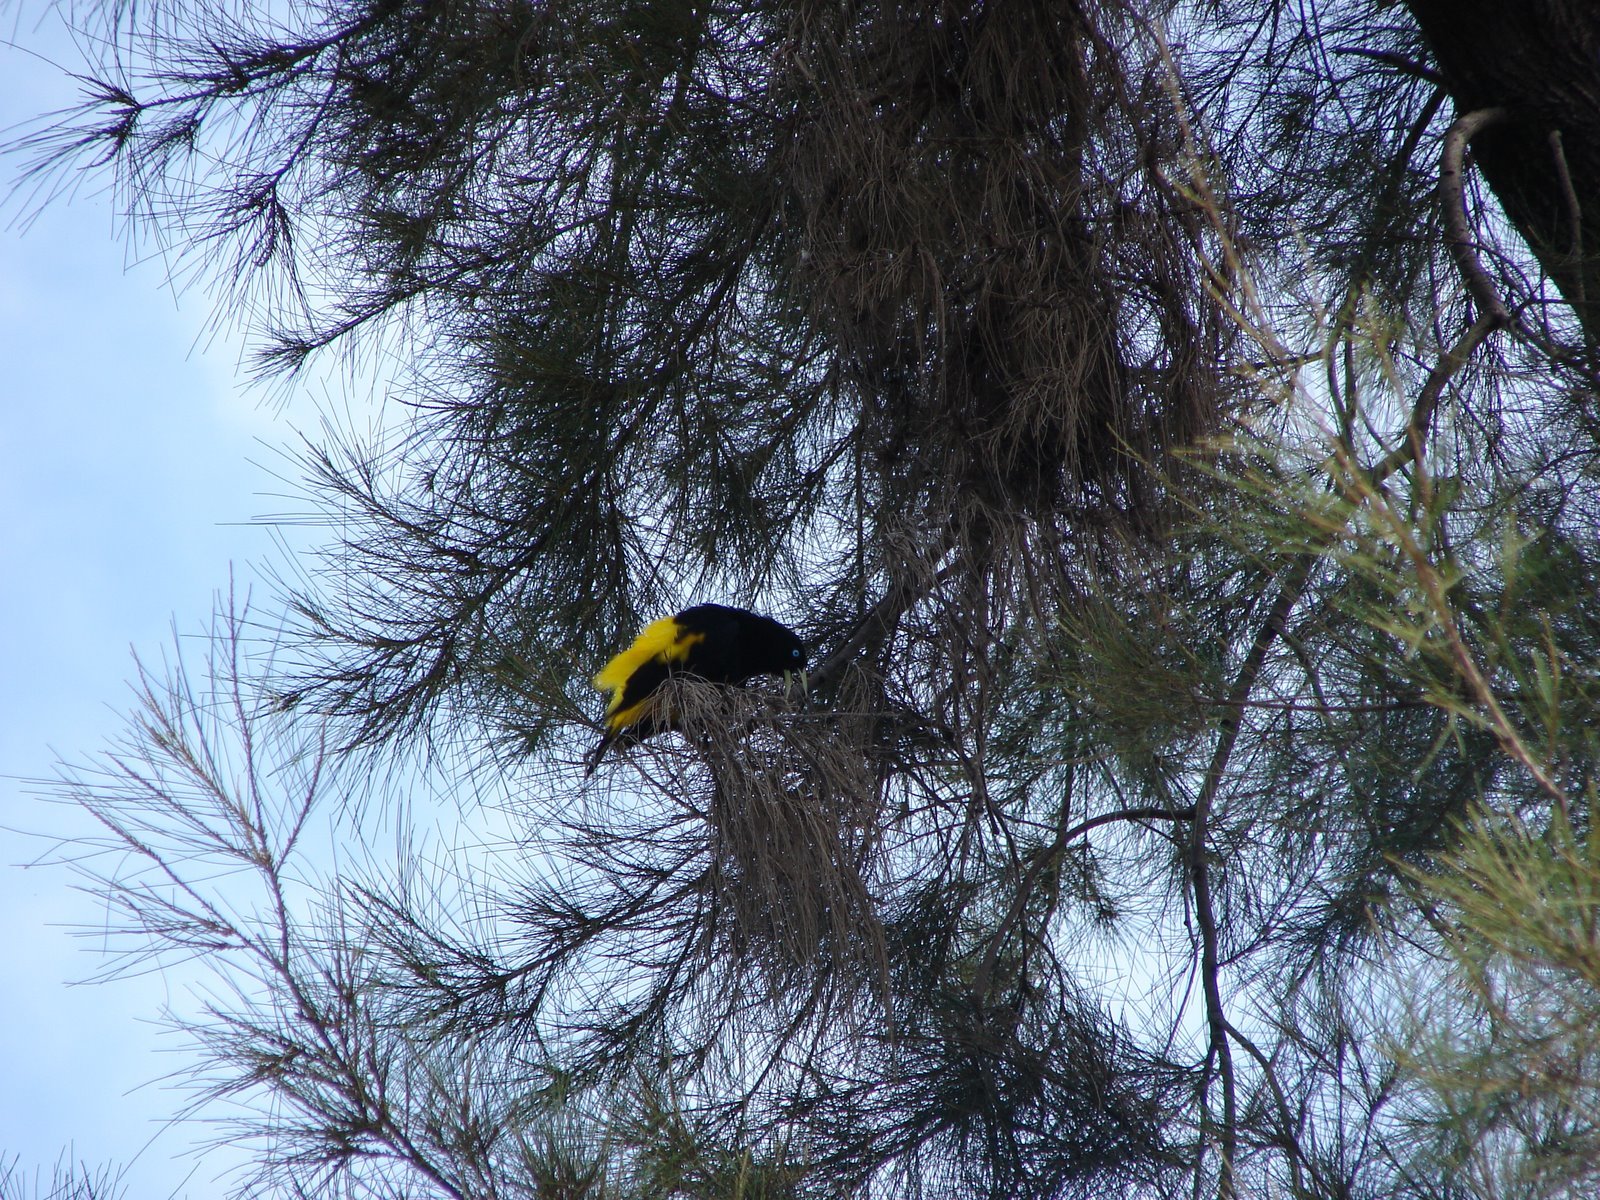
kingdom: Animalia
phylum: Chordata
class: Aves
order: Passeriformes
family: Icteridae
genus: Cacicus
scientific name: Cacicus cela
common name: Yellow-rumped cacique
